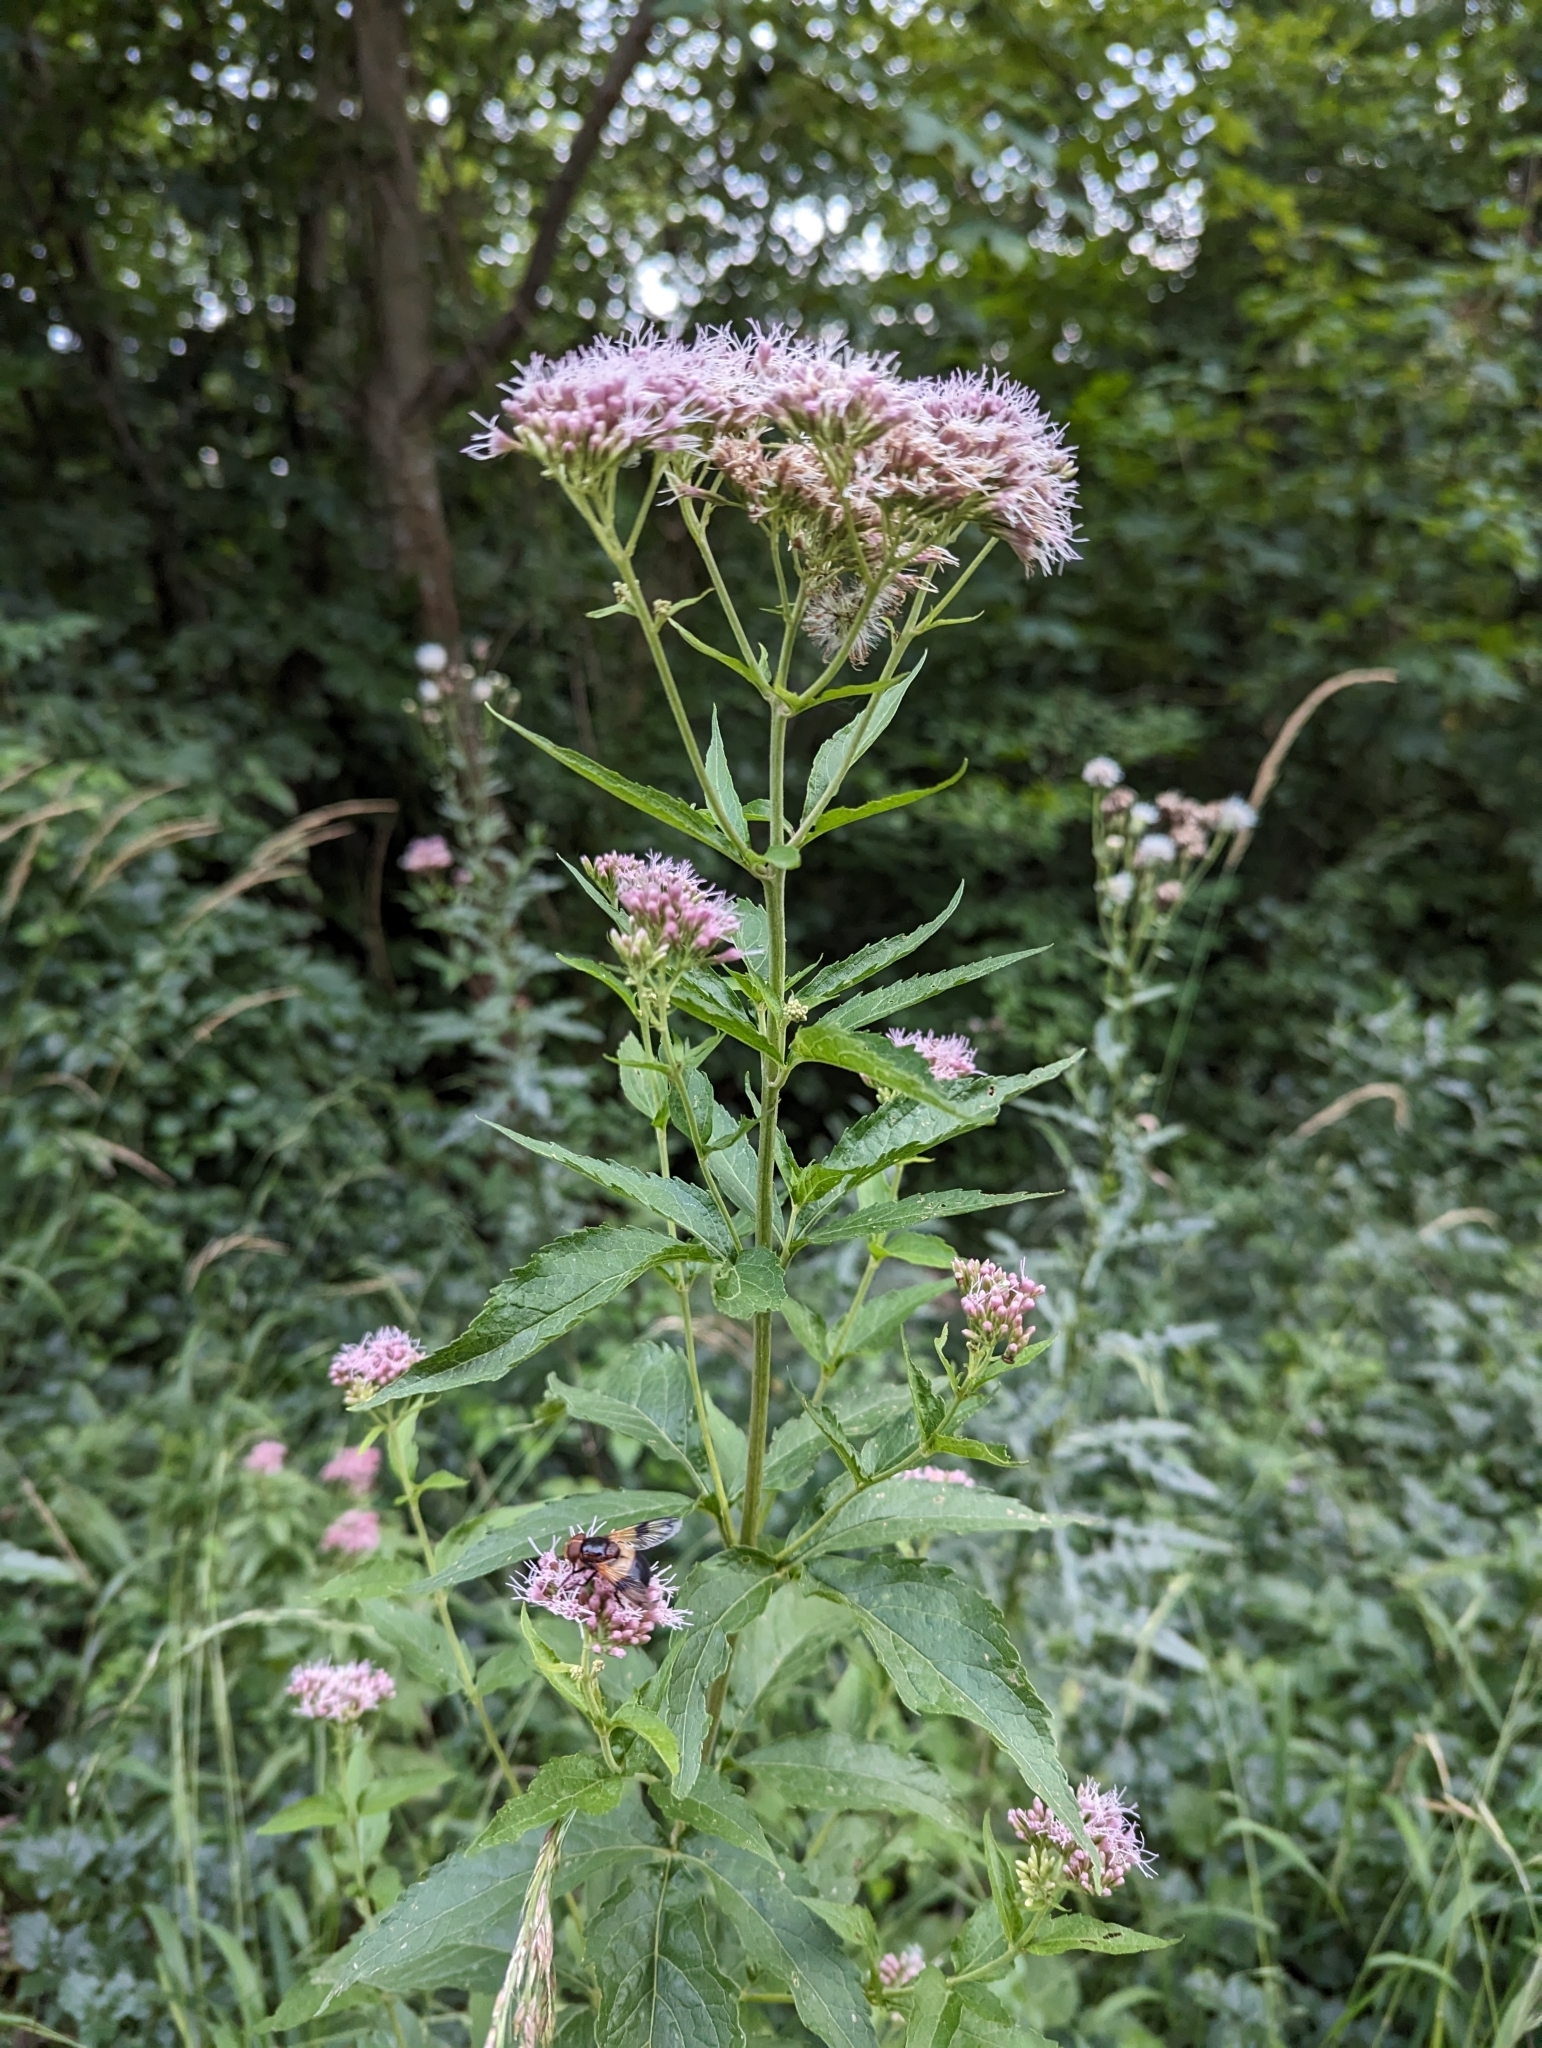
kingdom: Plantae
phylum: Tracheophyta
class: Magnoliopsida
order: Asterales
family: Asteraceae
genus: Eupatorium
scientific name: Eupatorium cannabinum
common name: Hemp-agrimony
